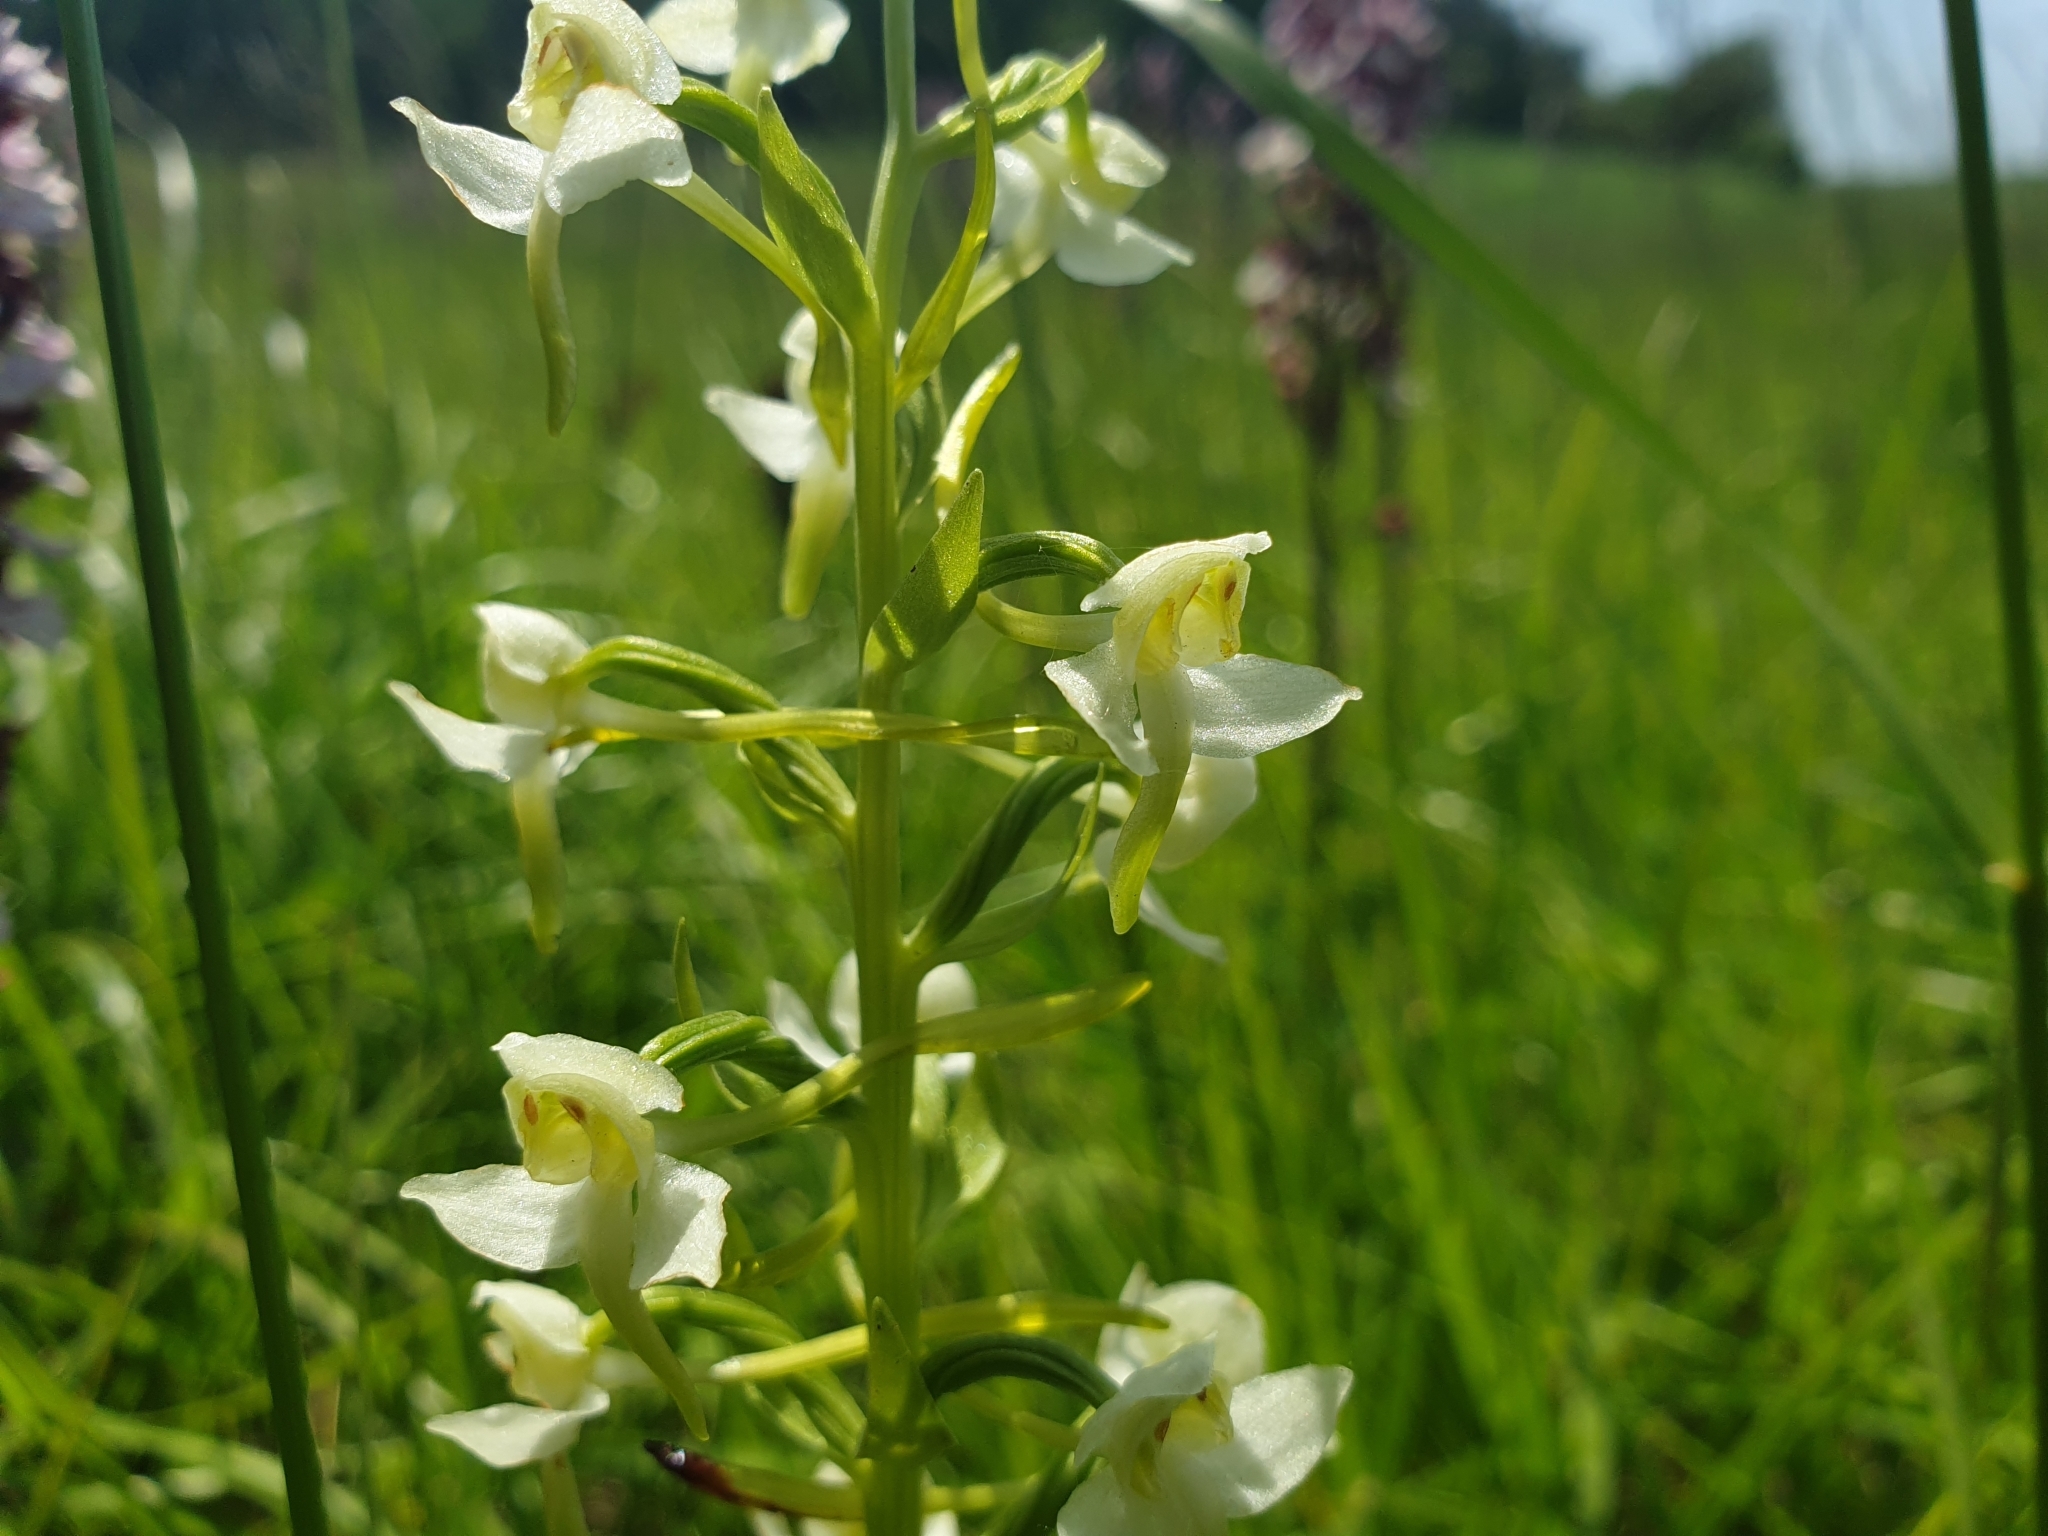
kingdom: Plantae
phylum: Tracheophyta
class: Liliopsida
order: Asparagales
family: Orchidaceae
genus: Platanthera
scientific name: Platanthera chlorantha
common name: Greater butterfly-orchid
